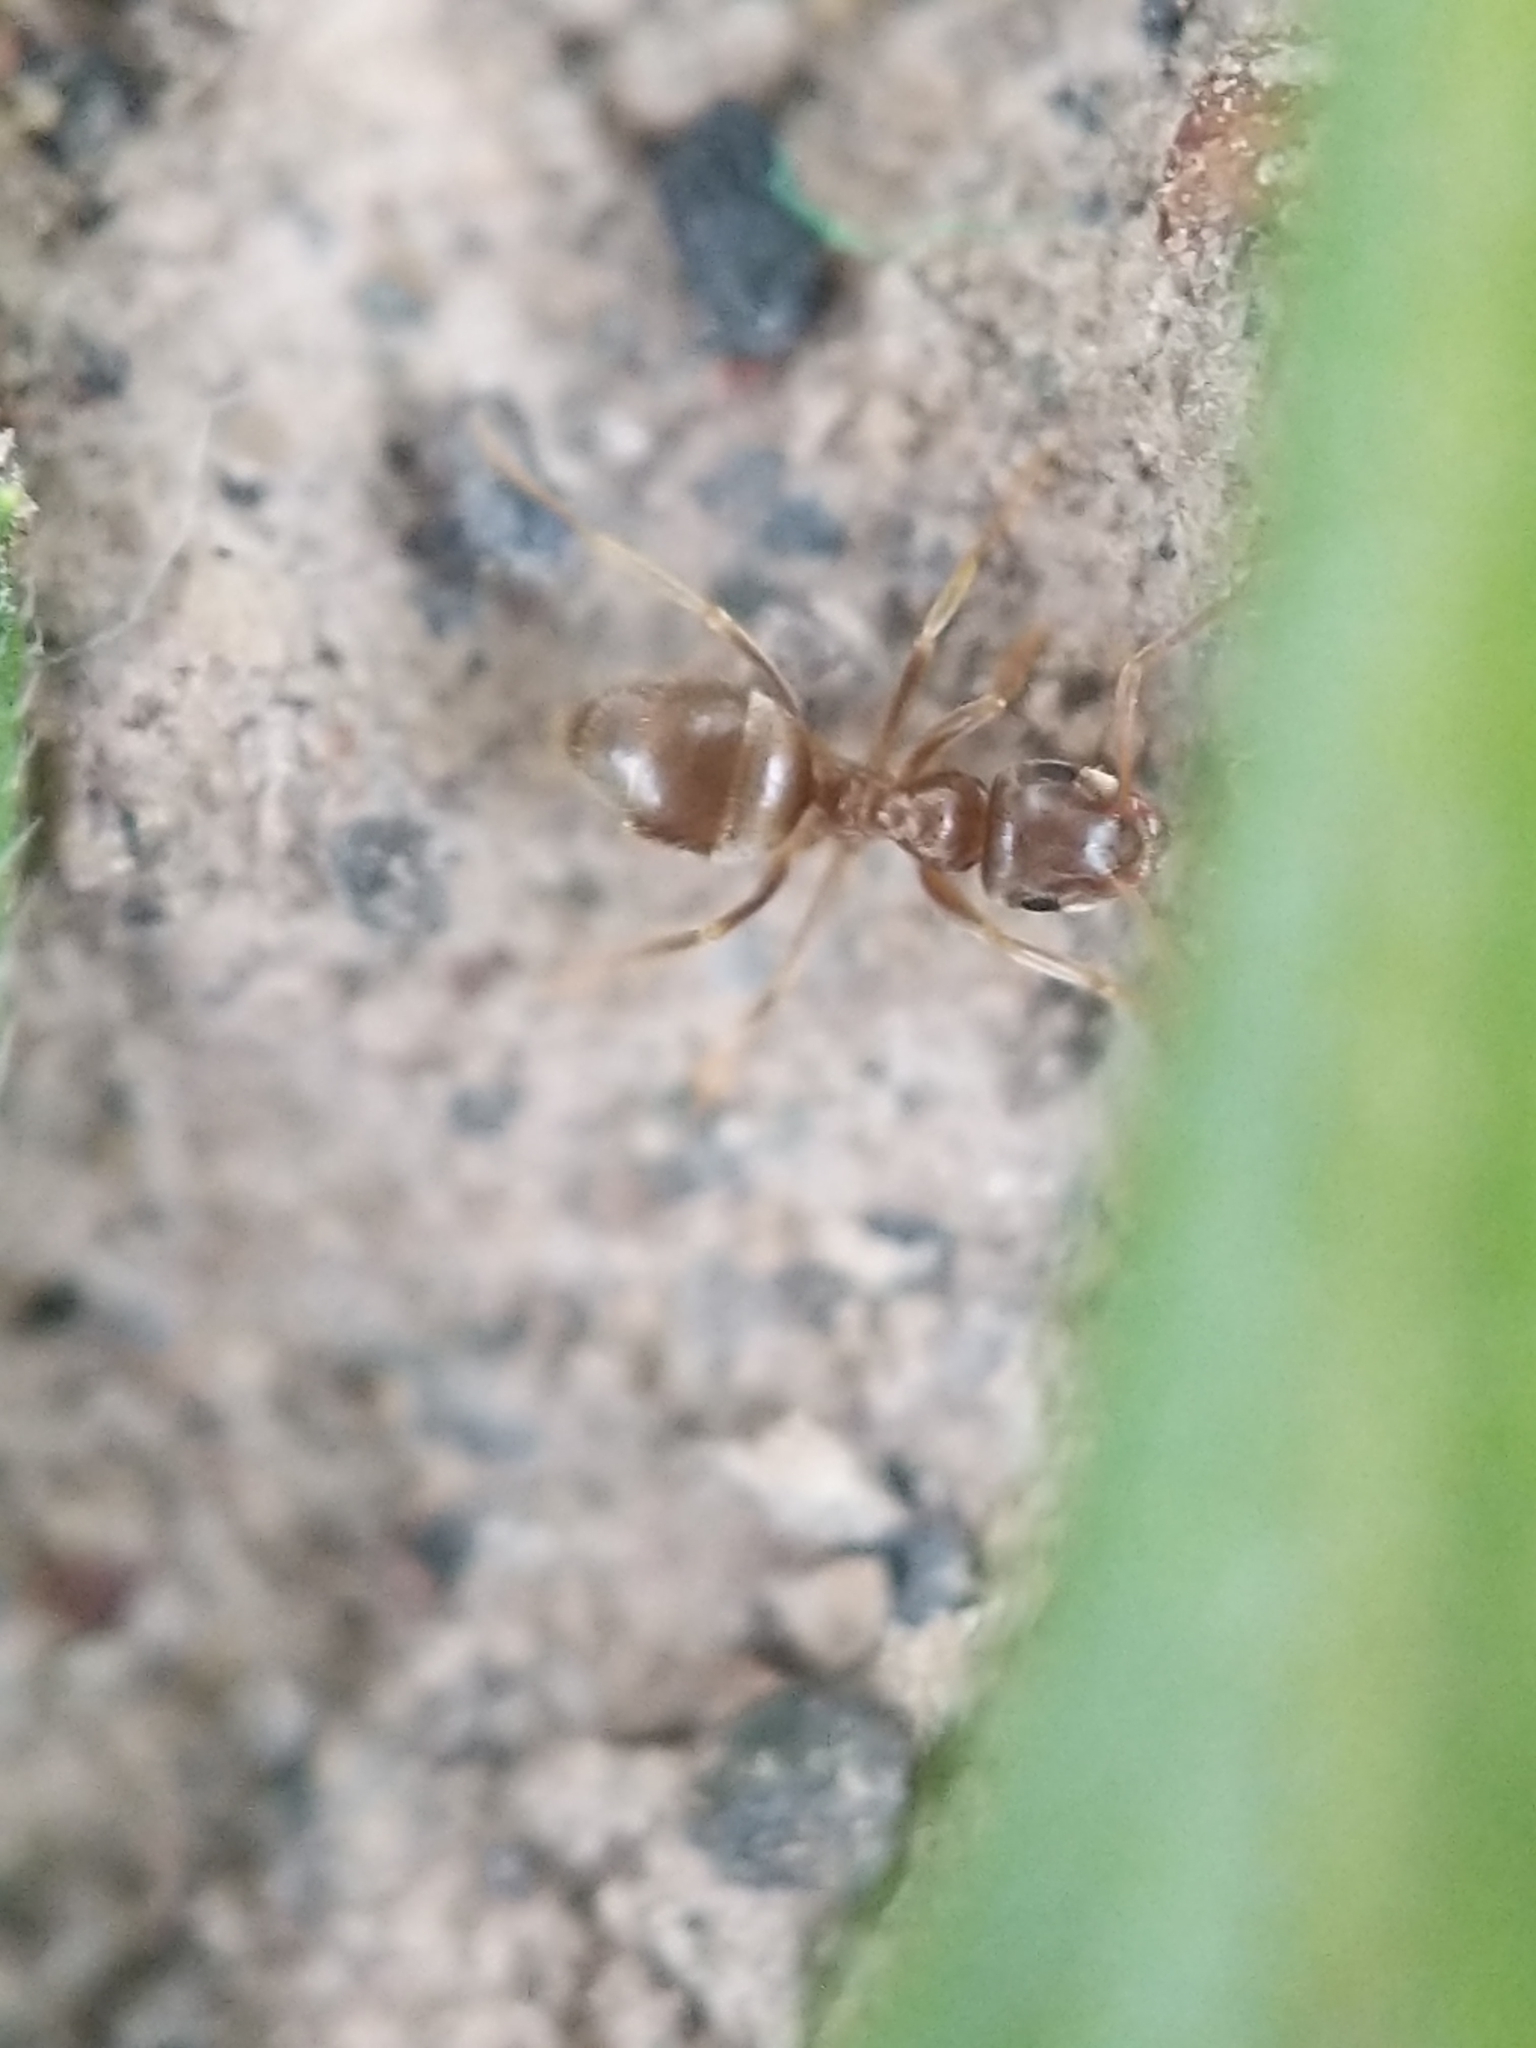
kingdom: Animalia
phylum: Arthropoda
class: Insecta
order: Hymenoptera
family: Formicidae
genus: Lasius
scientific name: Lasius neoniger
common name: Turfgrass ant
